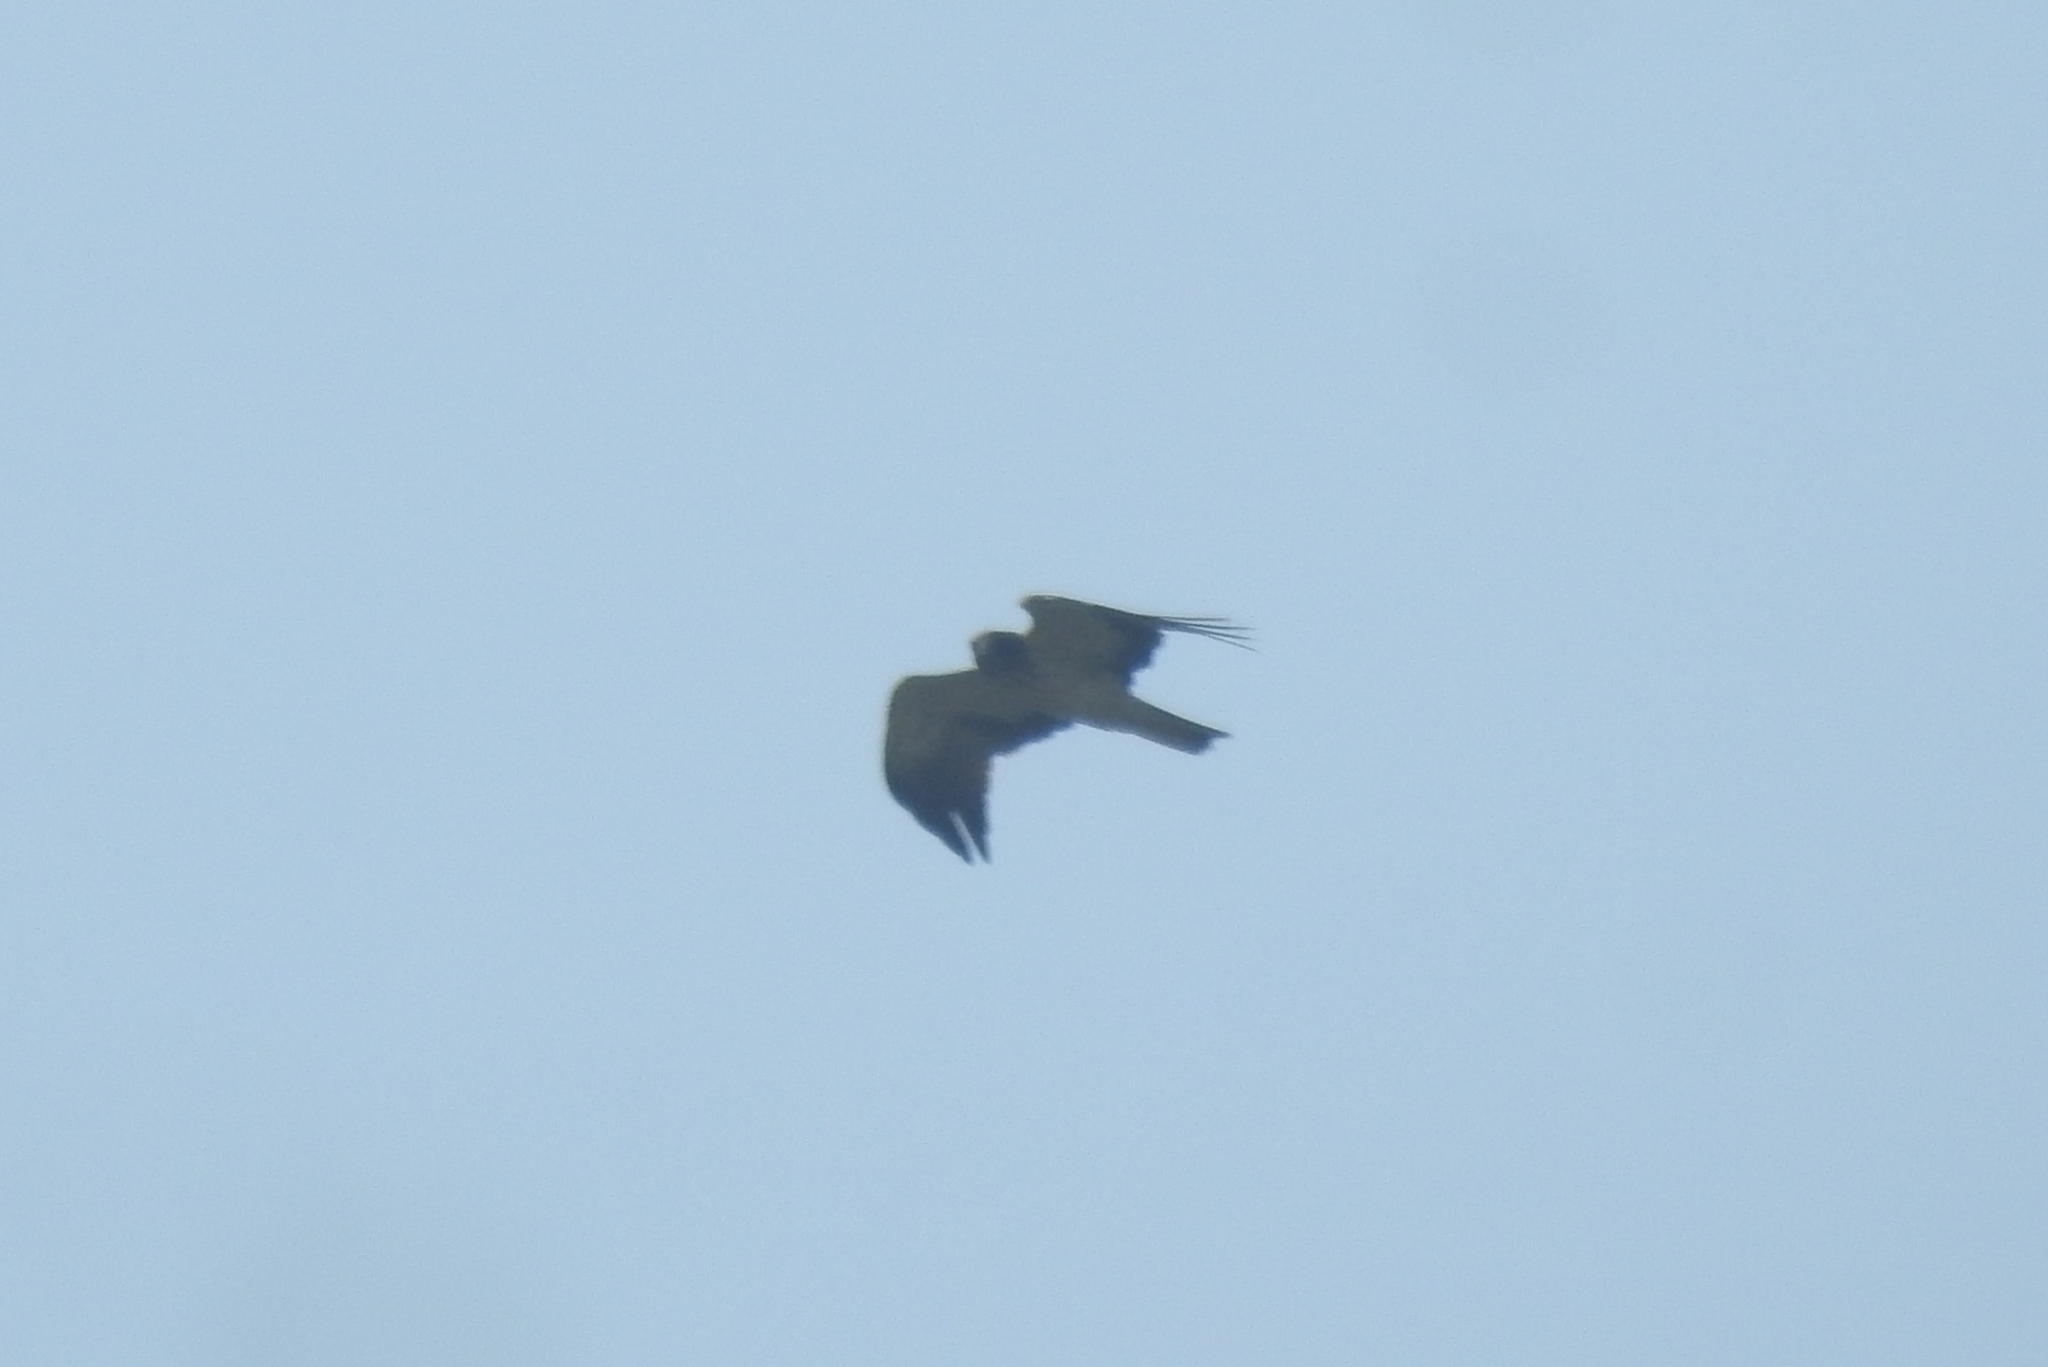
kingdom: Animalia
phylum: Chordata
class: Aves
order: Accipitriformes
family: Accipitridae
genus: Hieraaetus
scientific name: Hieraaetus pennatus
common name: Booted eagle
